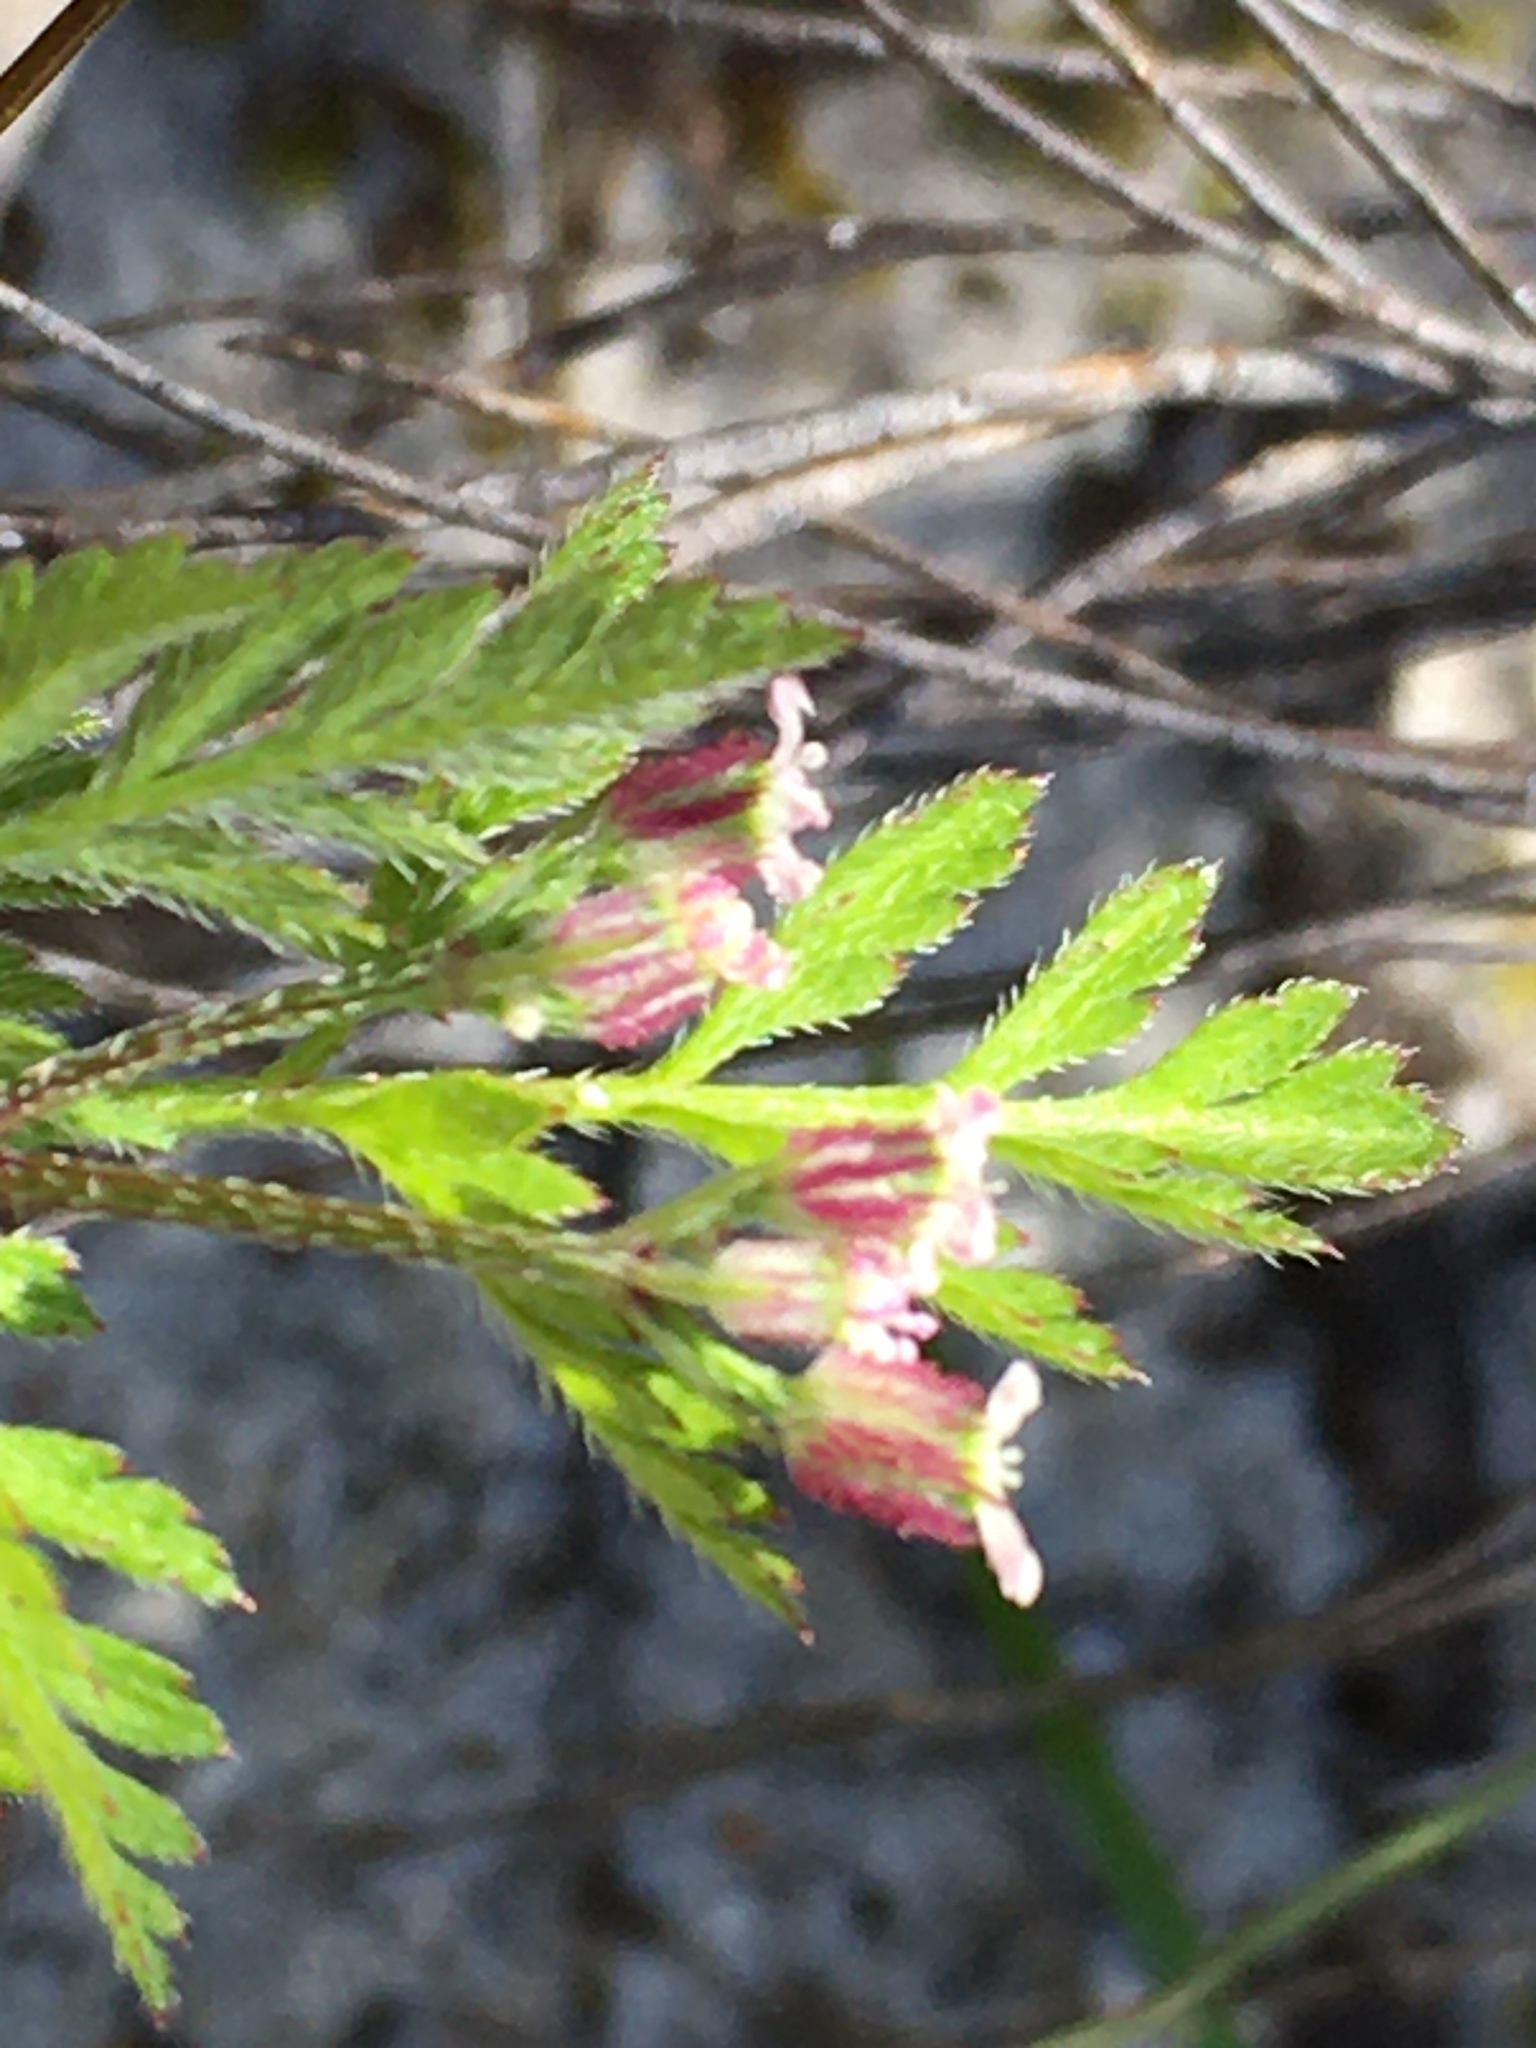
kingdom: Plantae
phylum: Tracheophyta
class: Magnoliopsida
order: Apiales
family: Apiaceae
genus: Torilis
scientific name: Torilis africana
